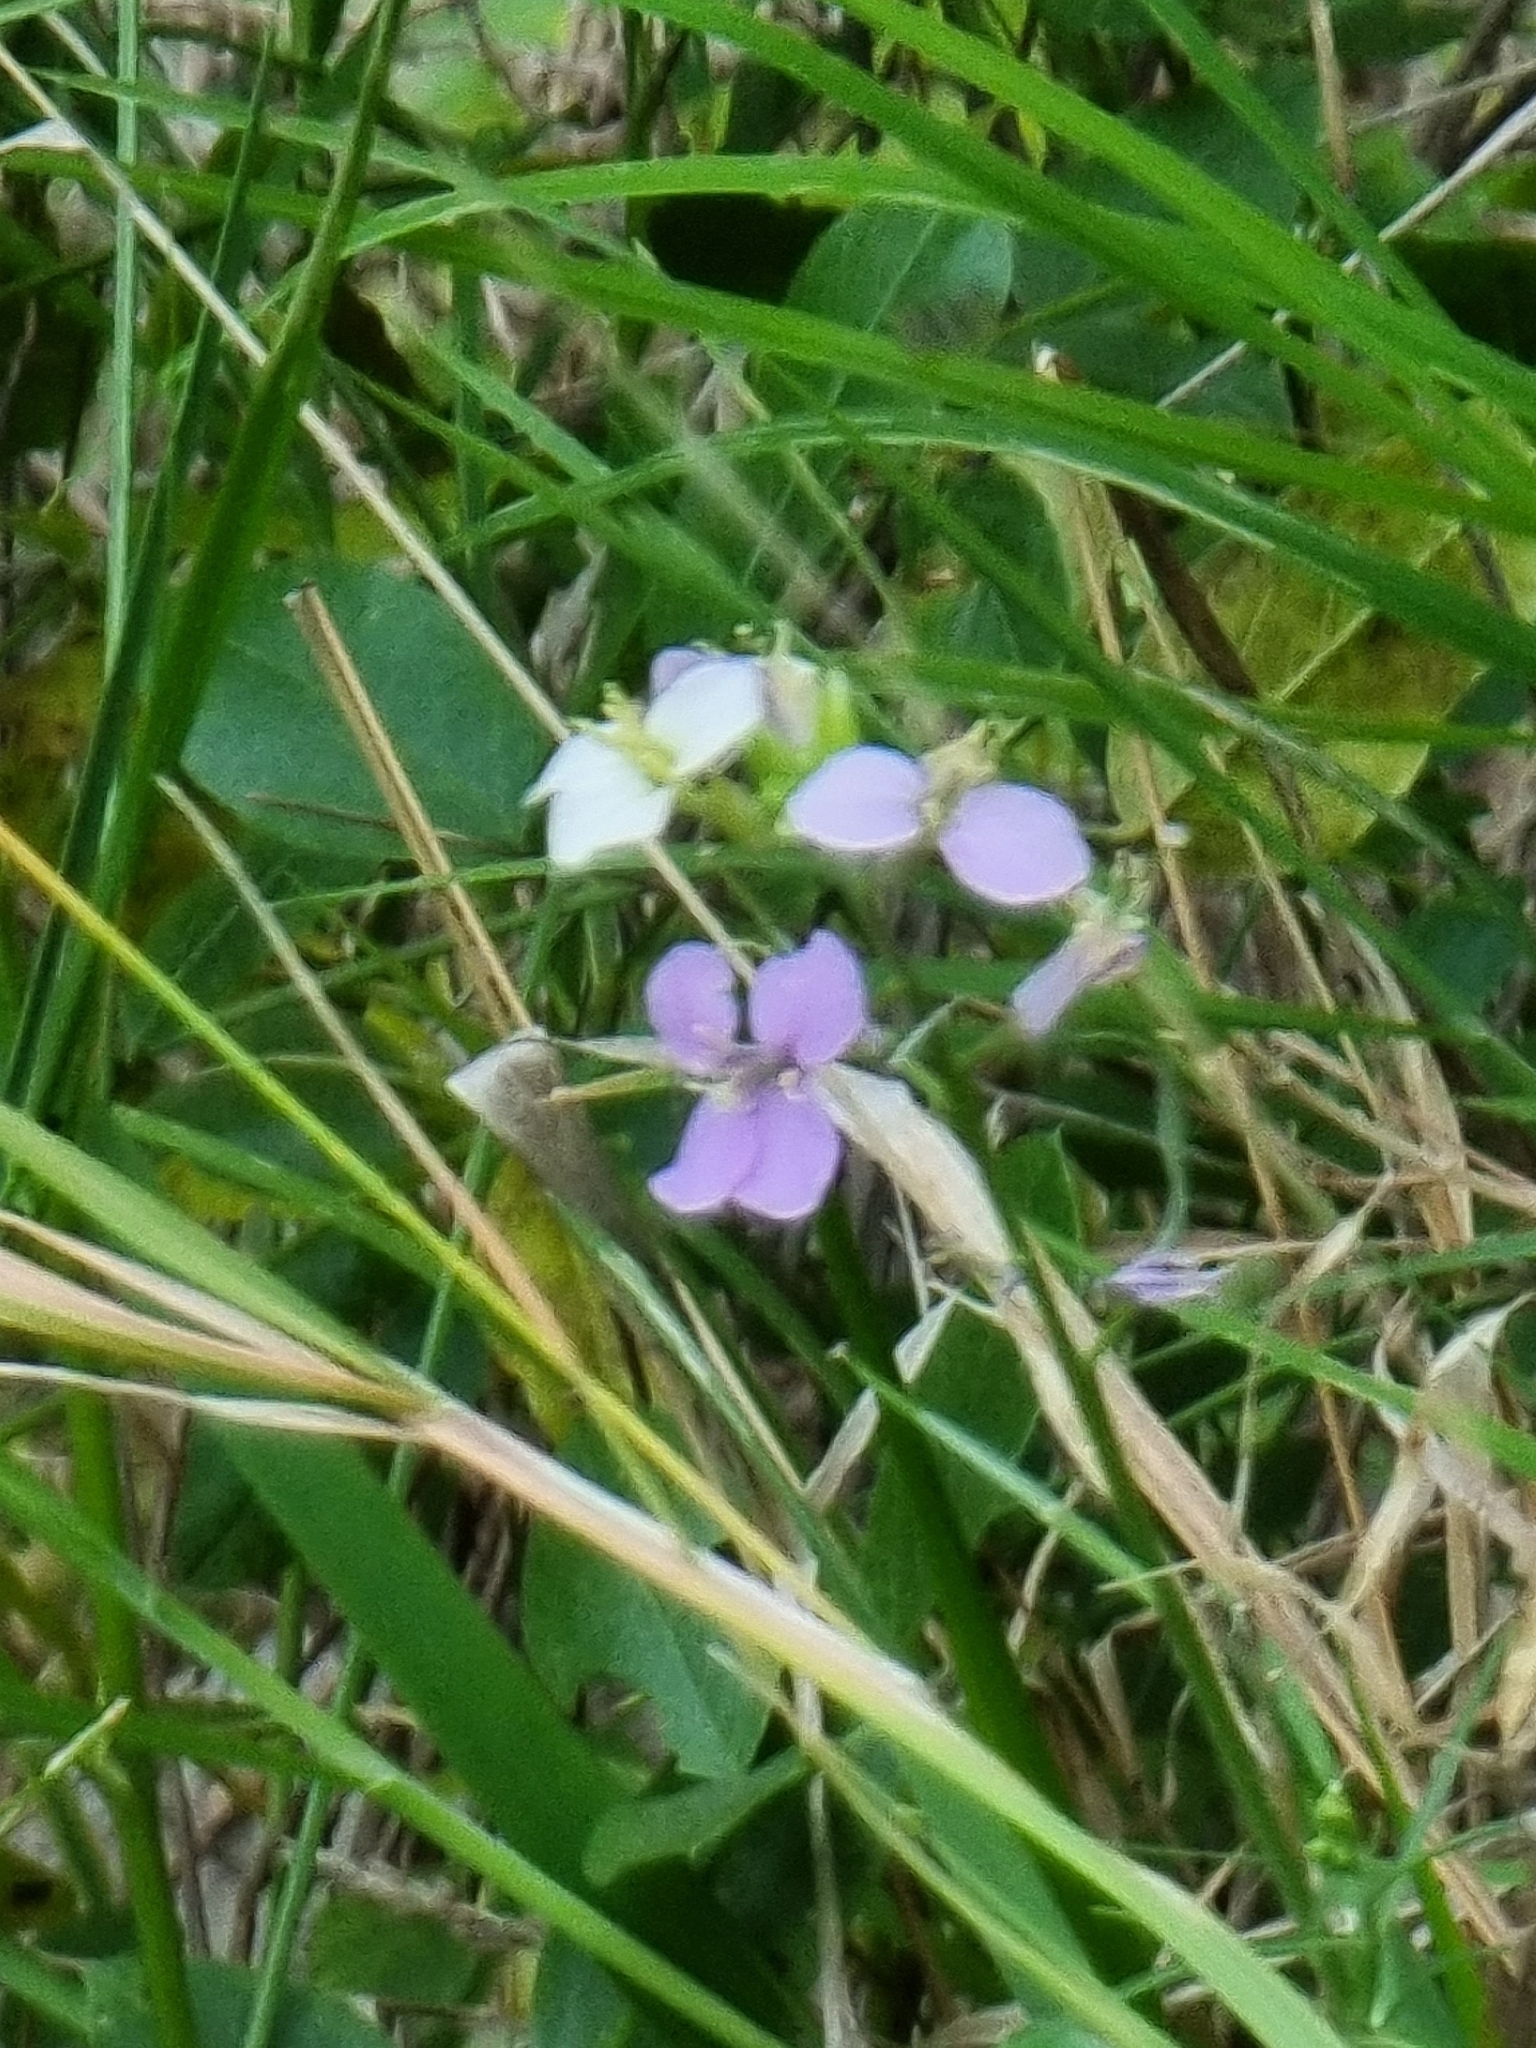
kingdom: Plantae
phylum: Tracheophyta
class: Magnoliopsida
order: Brassicales
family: Brassicaceae
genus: Erysimum
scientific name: Erysimum bicolor
